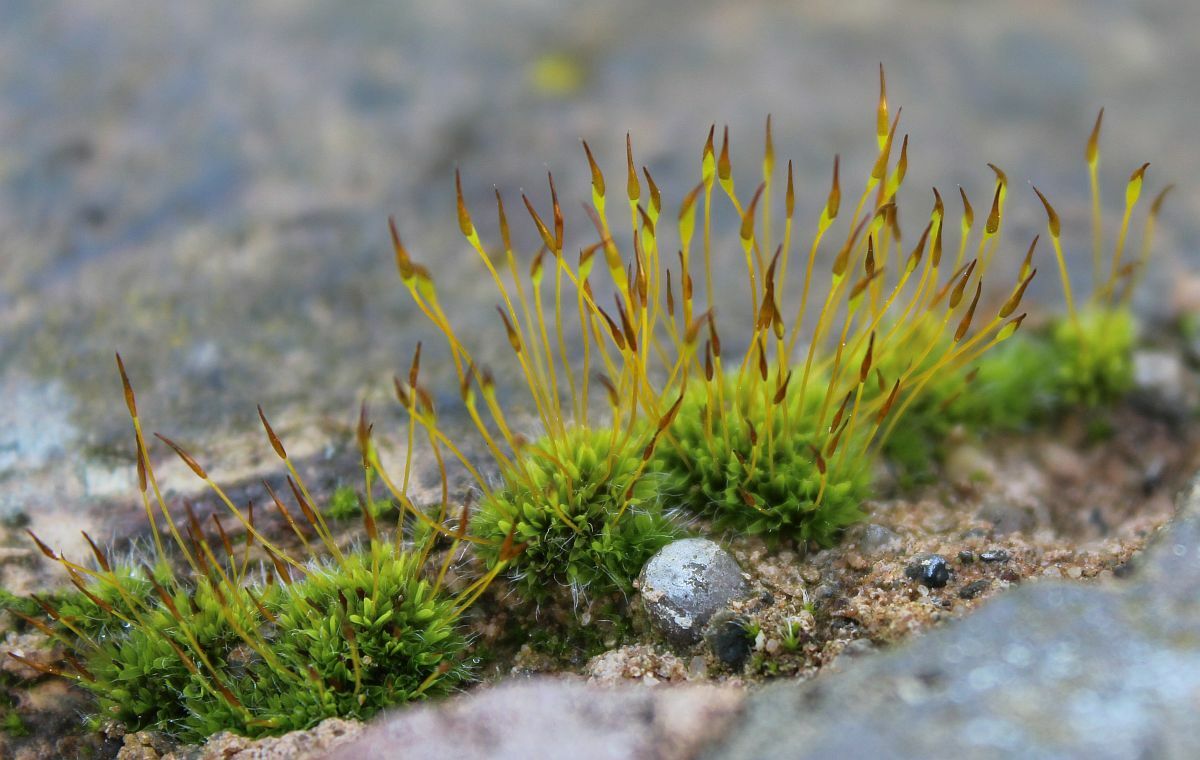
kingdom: Plantae
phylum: Bryophyta
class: Bryopsida
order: Pottiales
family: Pottiaceae
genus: Tortula
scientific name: Tortula muralis
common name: Wall screw-moss
